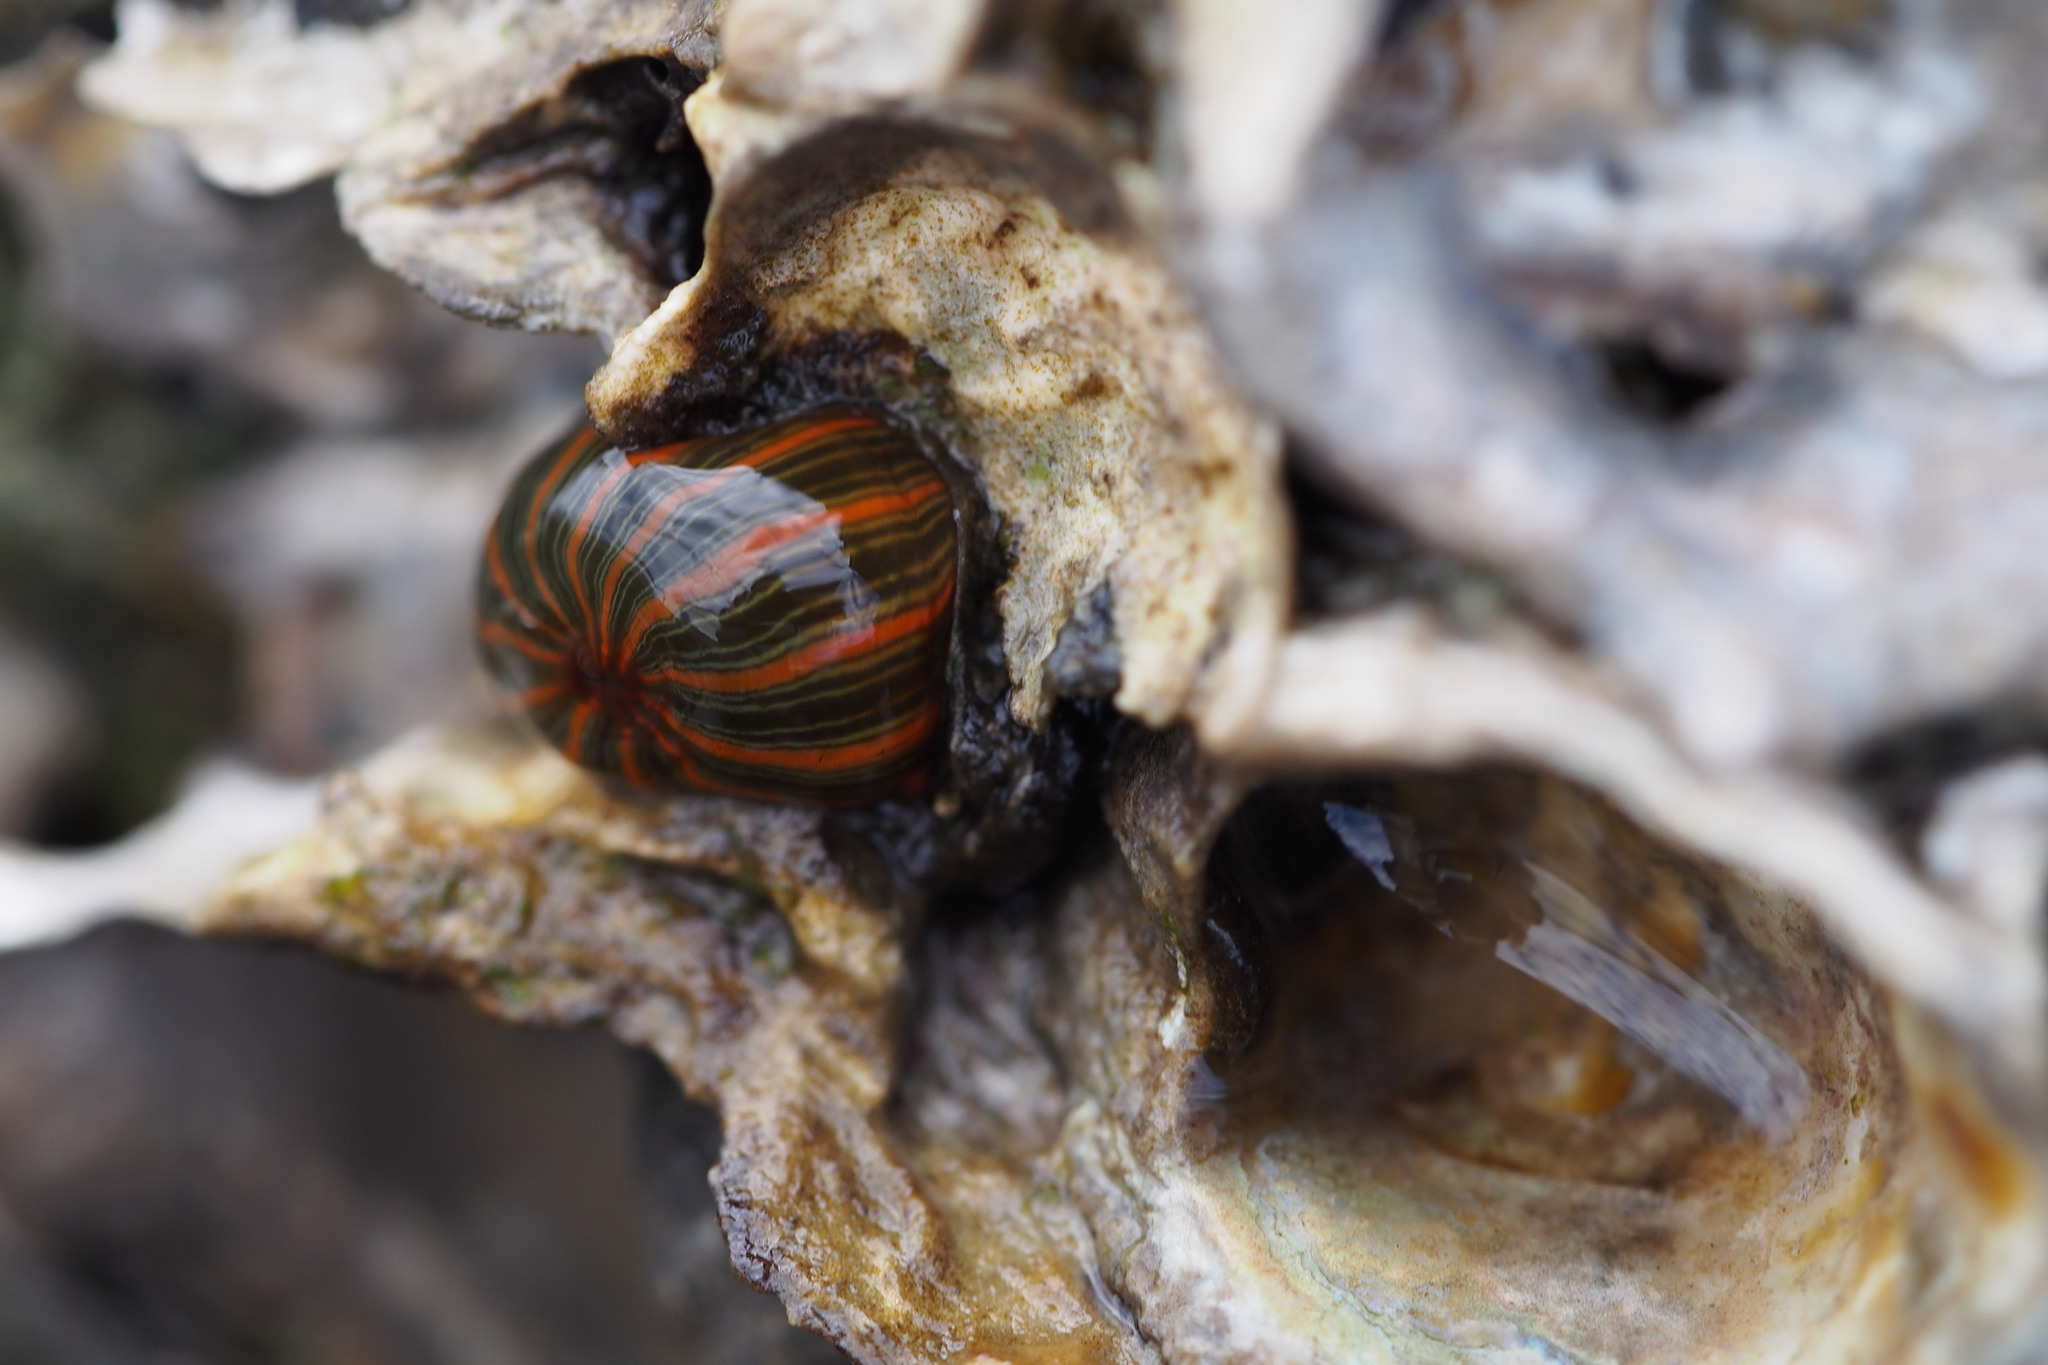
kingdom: Animalia
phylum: Cnidaria
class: Anthozoa
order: Actiniaria
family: Diadumenidae
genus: Diadumene
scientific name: Diadumene lineata
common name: Orange-striped anemone
